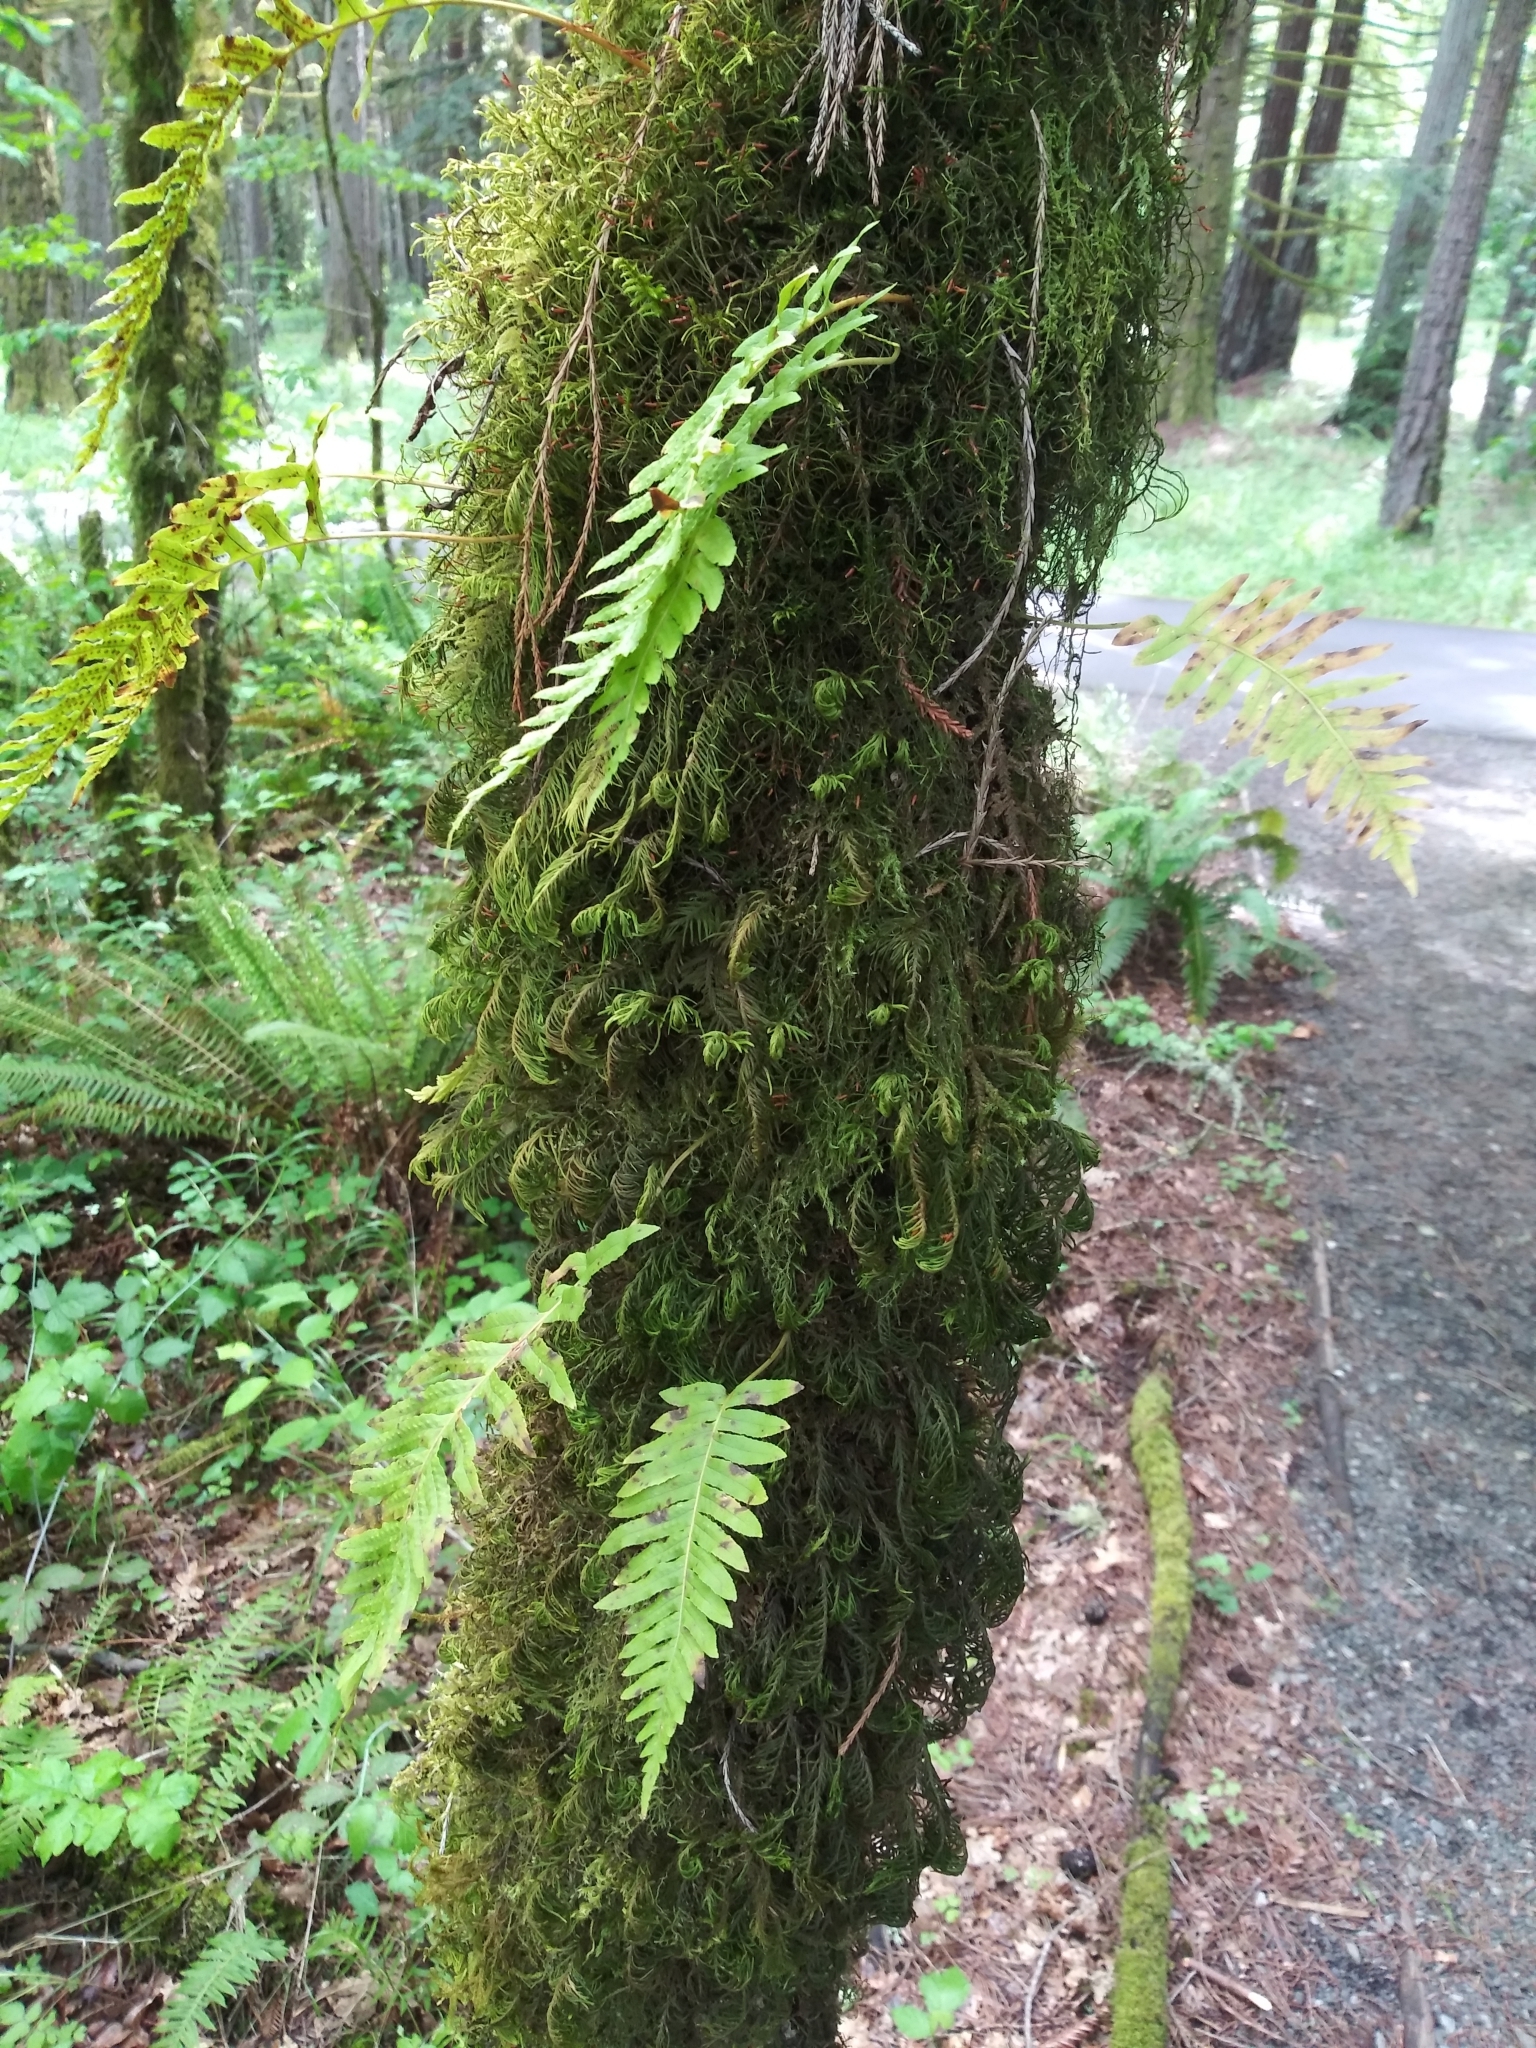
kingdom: Plantae
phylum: Tracheophyta
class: Polypodiopsida
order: Polypodiales
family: Polypodiaceae
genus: Polypodium
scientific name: Polypodium glycyrrhiza
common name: Licorice fern
